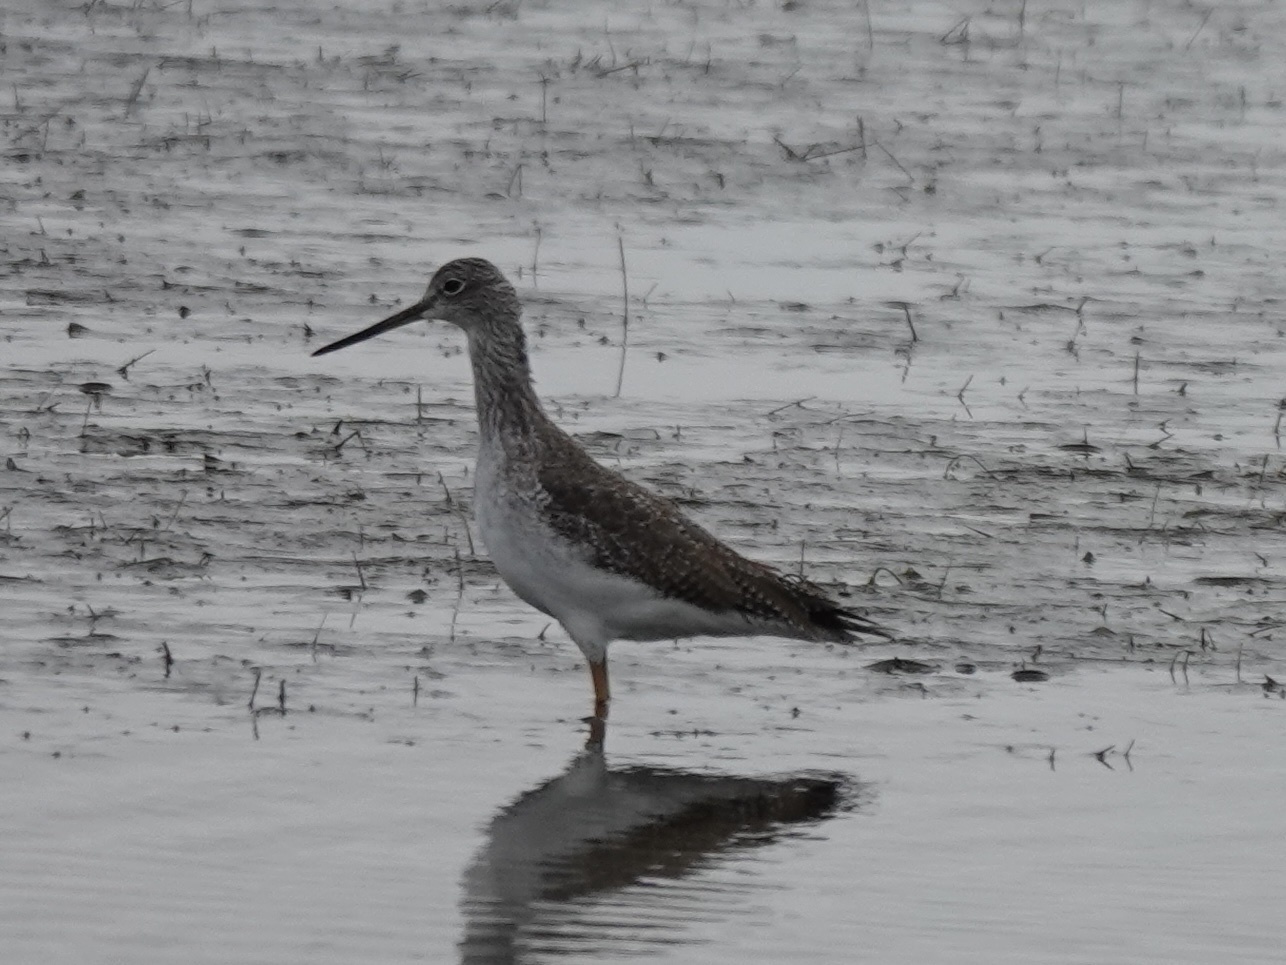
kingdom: Animalia
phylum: Chordata
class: Aves
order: Charadriiformes
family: Scolopacidae
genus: Tringa
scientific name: Tringa melanoleuca
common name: Greater yellowlegs
